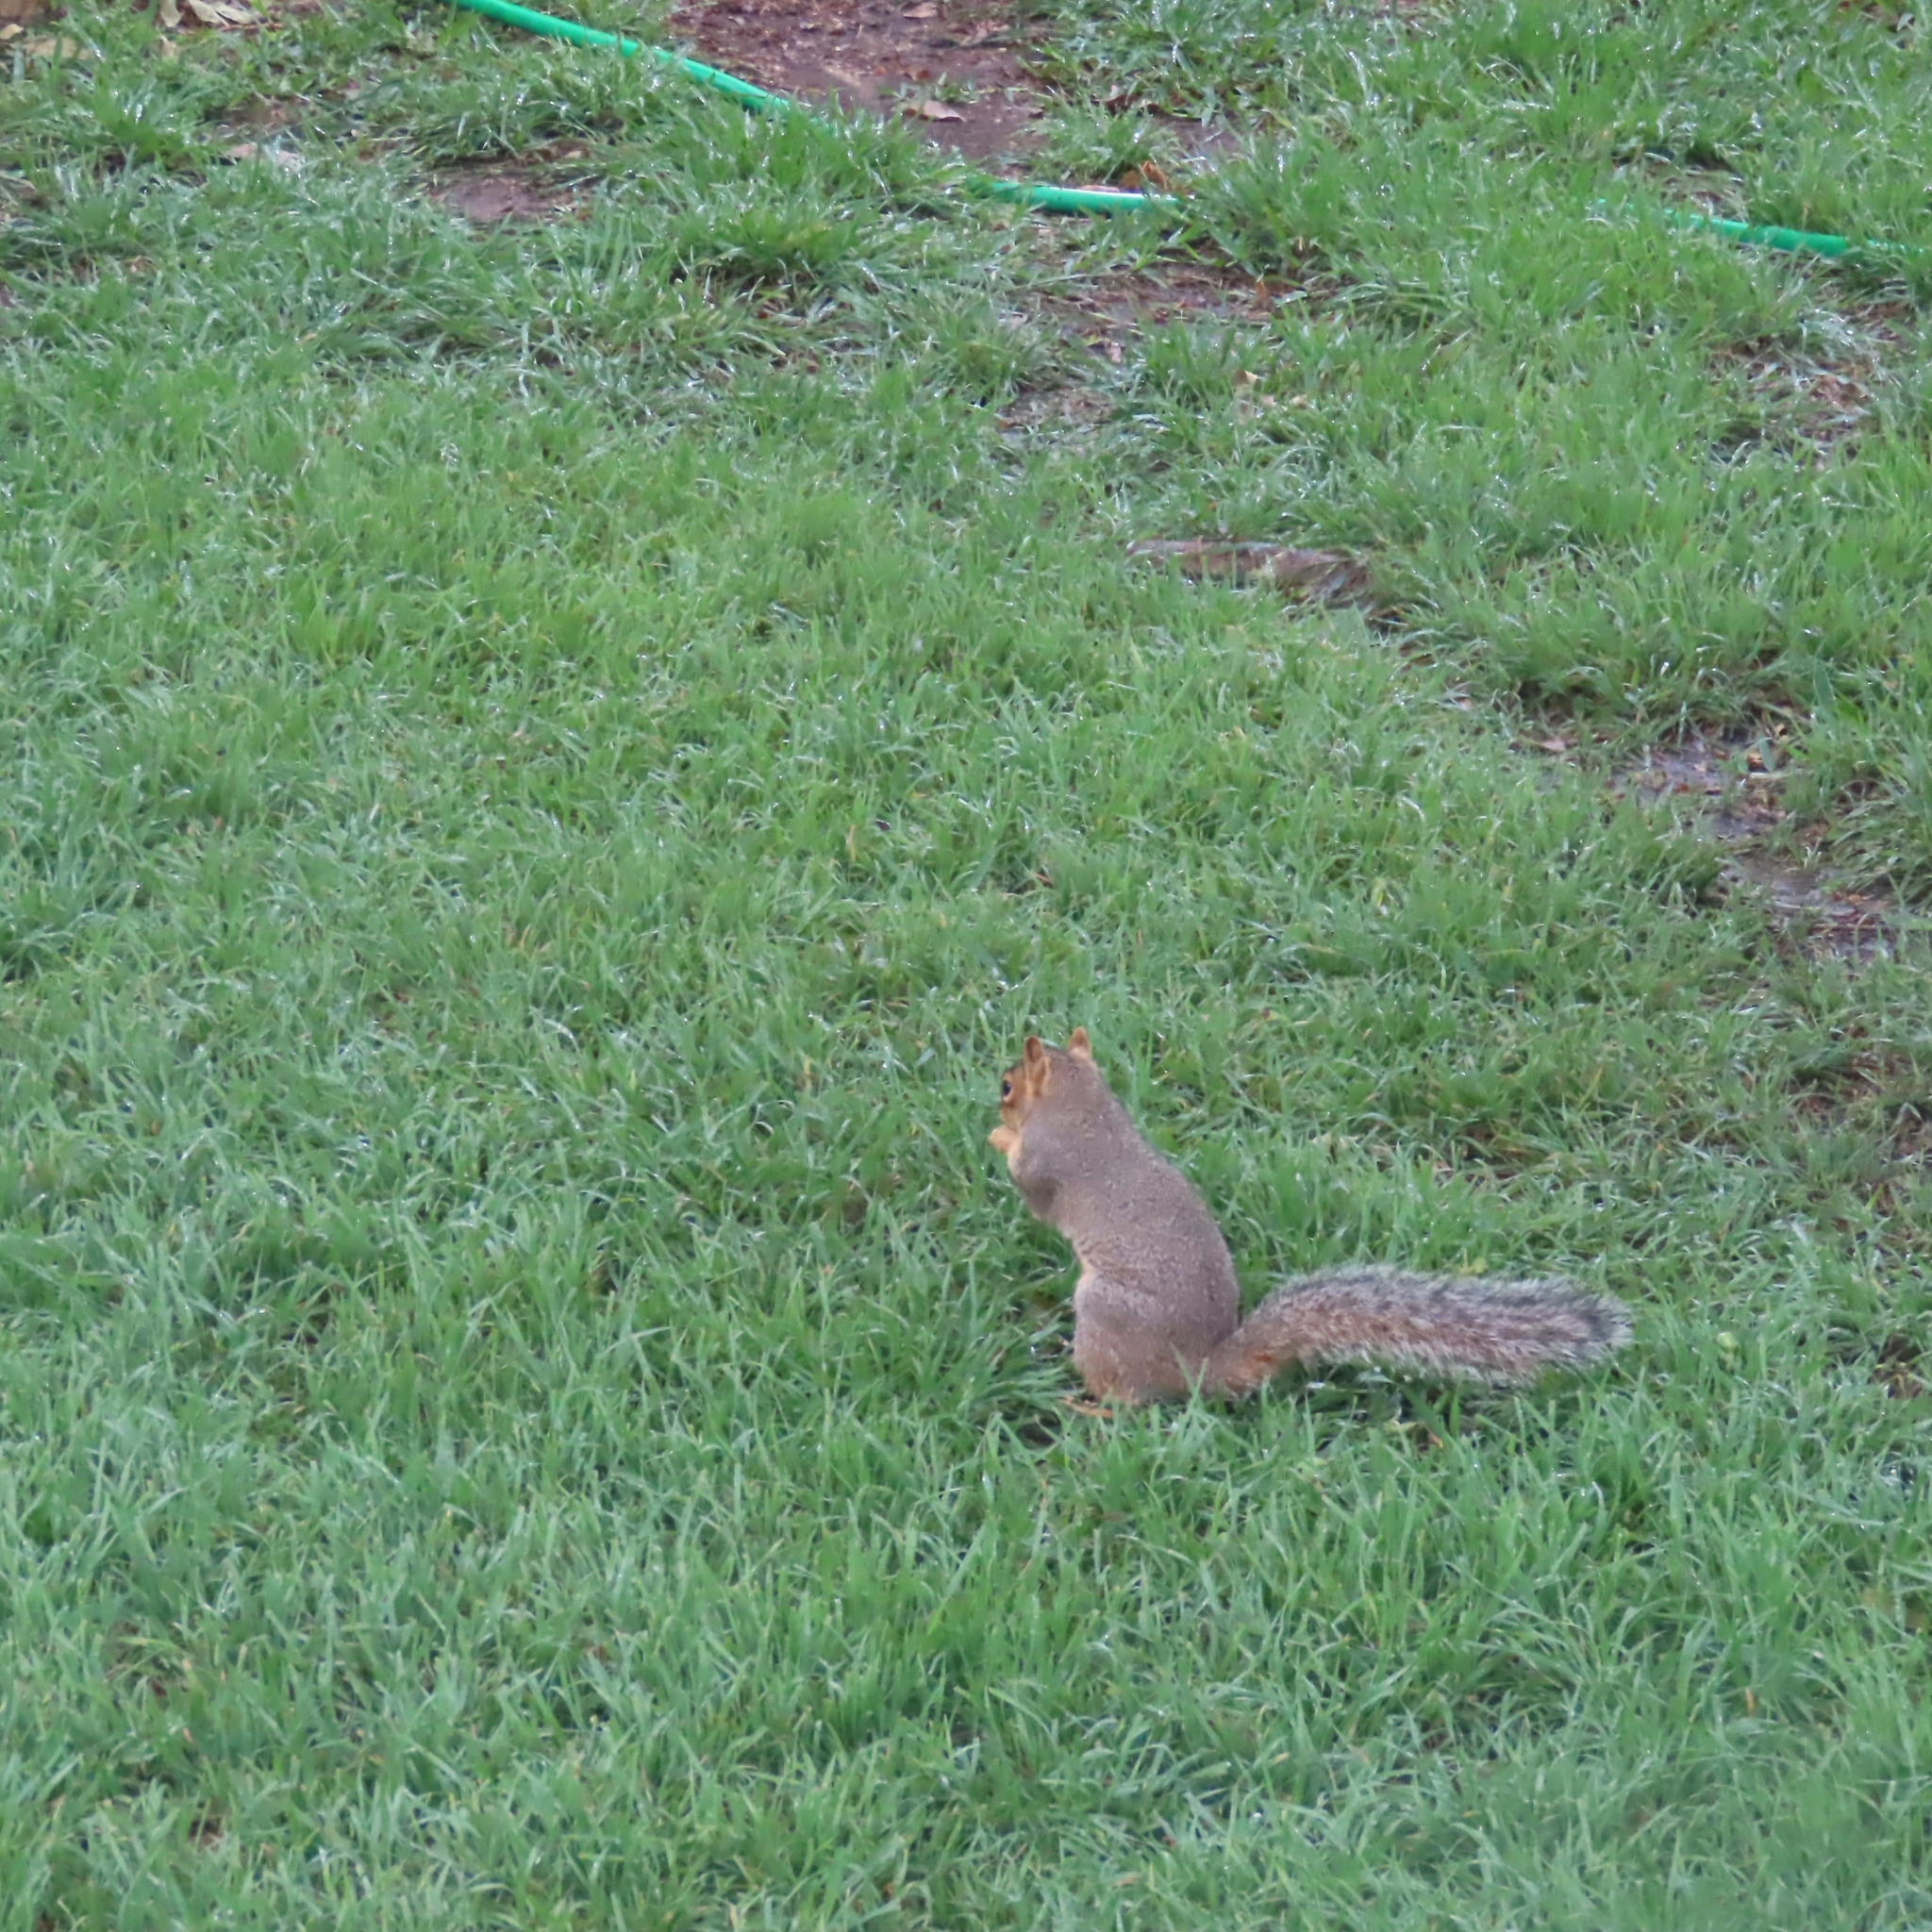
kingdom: Animalia
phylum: Chordata
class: Mammalia
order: Rodentia
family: Sciuridae
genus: Sciurus
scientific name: Sciurus niger
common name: Fox squirrel
